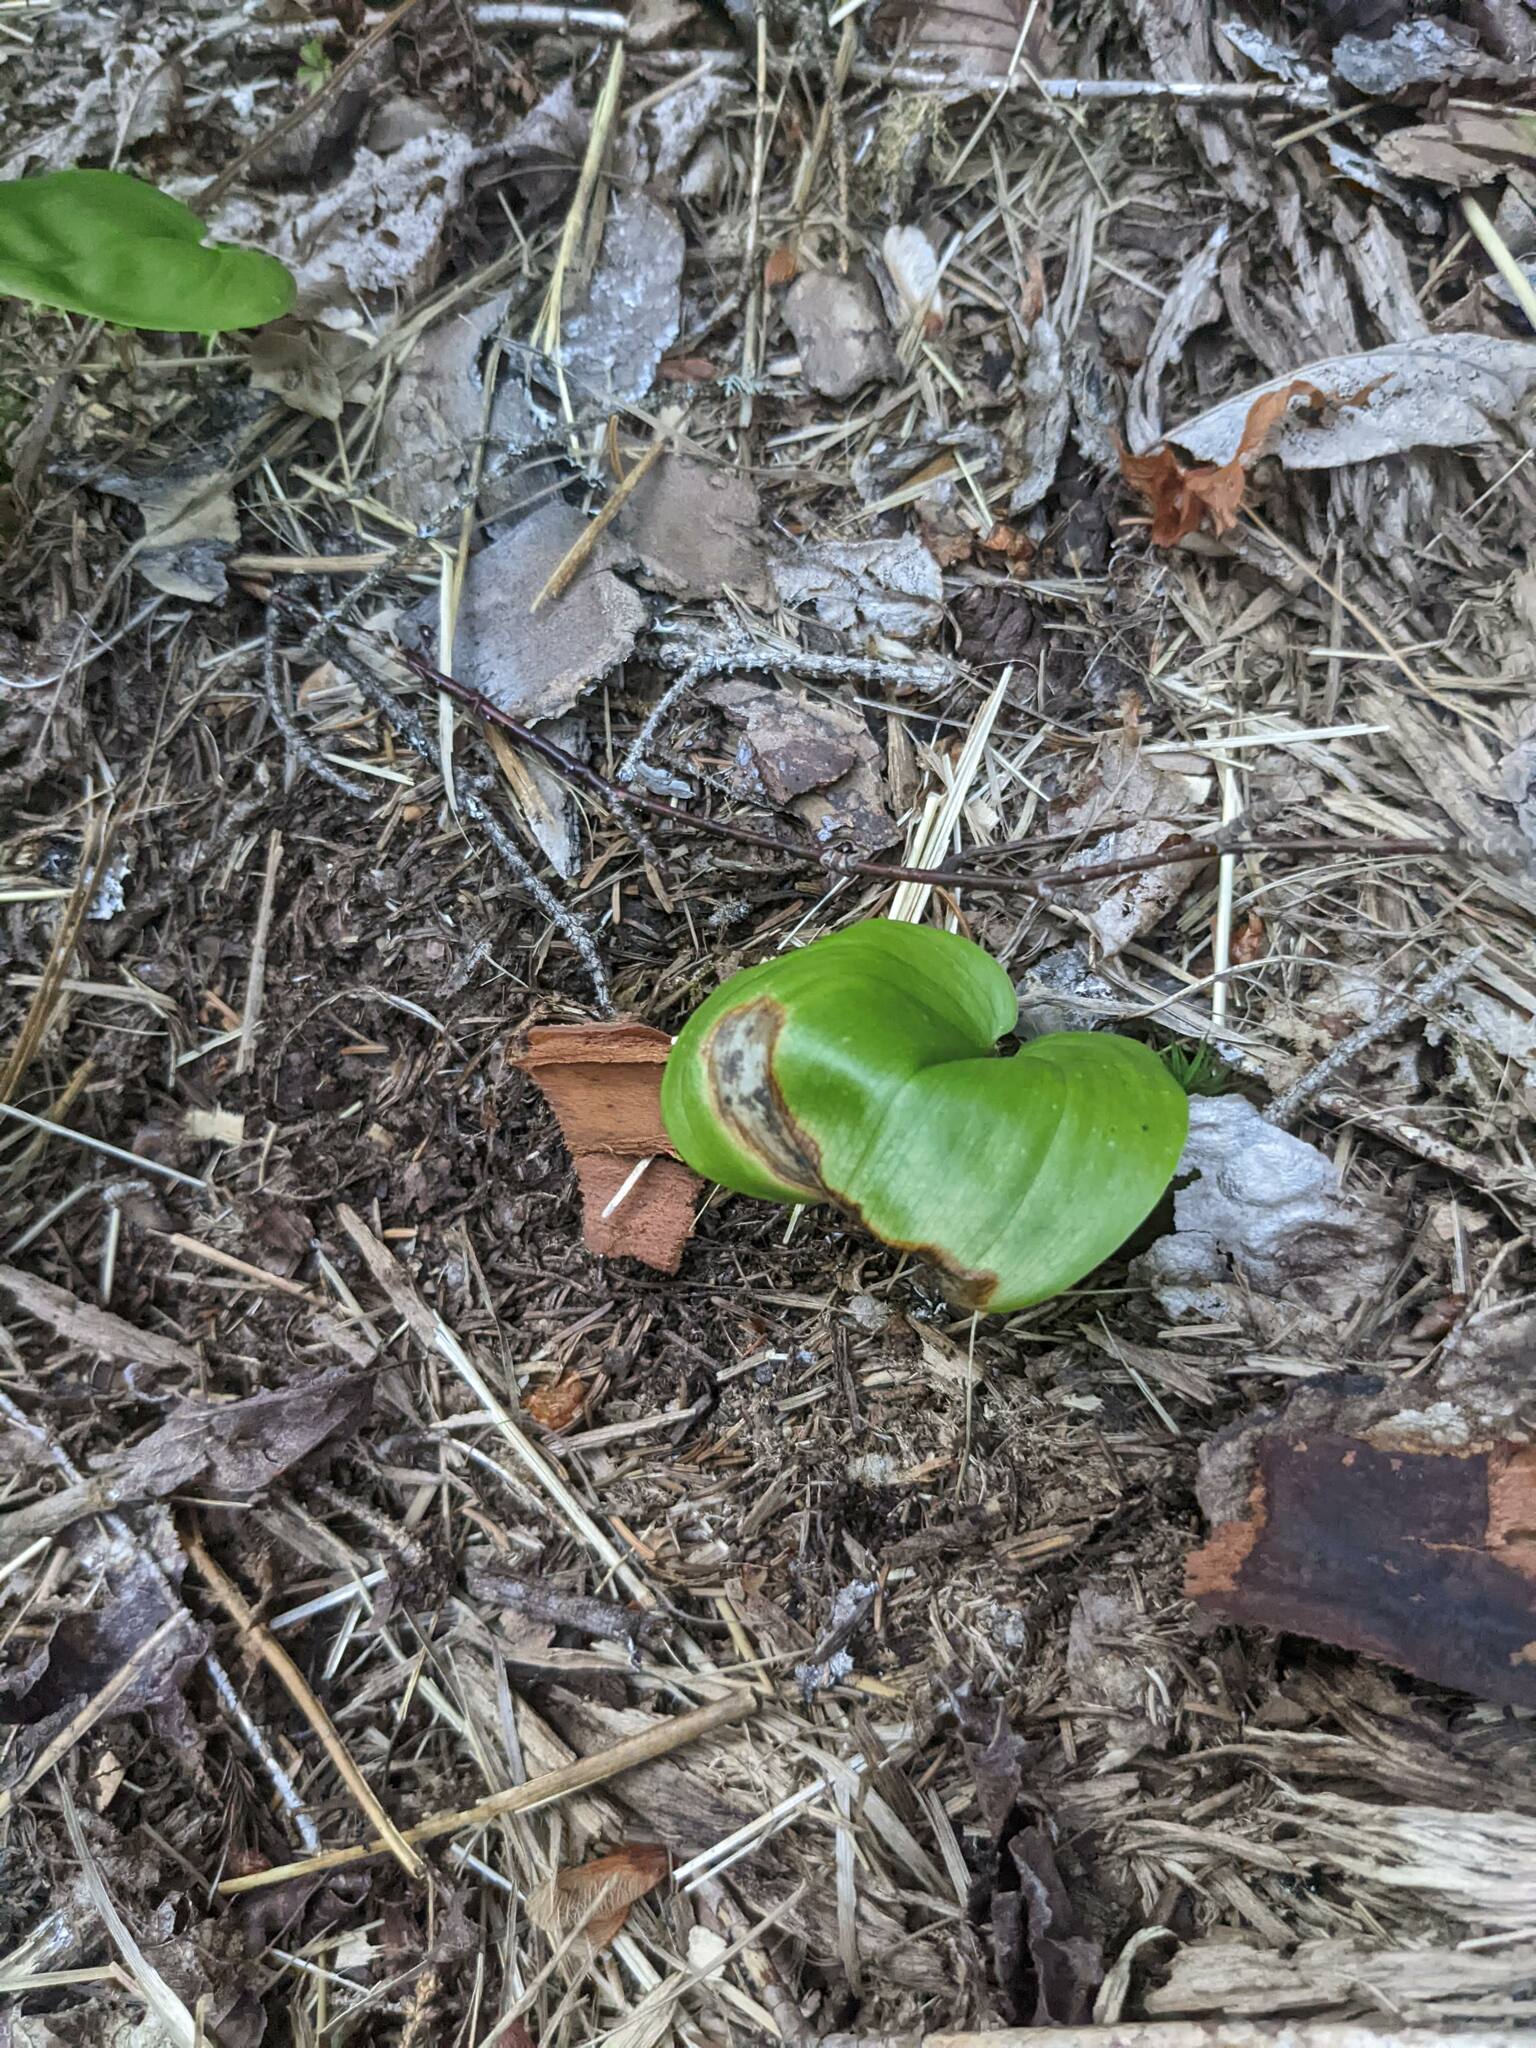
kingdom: Plantae
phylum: Tracheophyta
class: Liliopsida
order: Asparagales
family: Asparagaceae
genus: Maianthemum
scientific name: Maianthemum canadense
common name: False lily-of-the-valley
